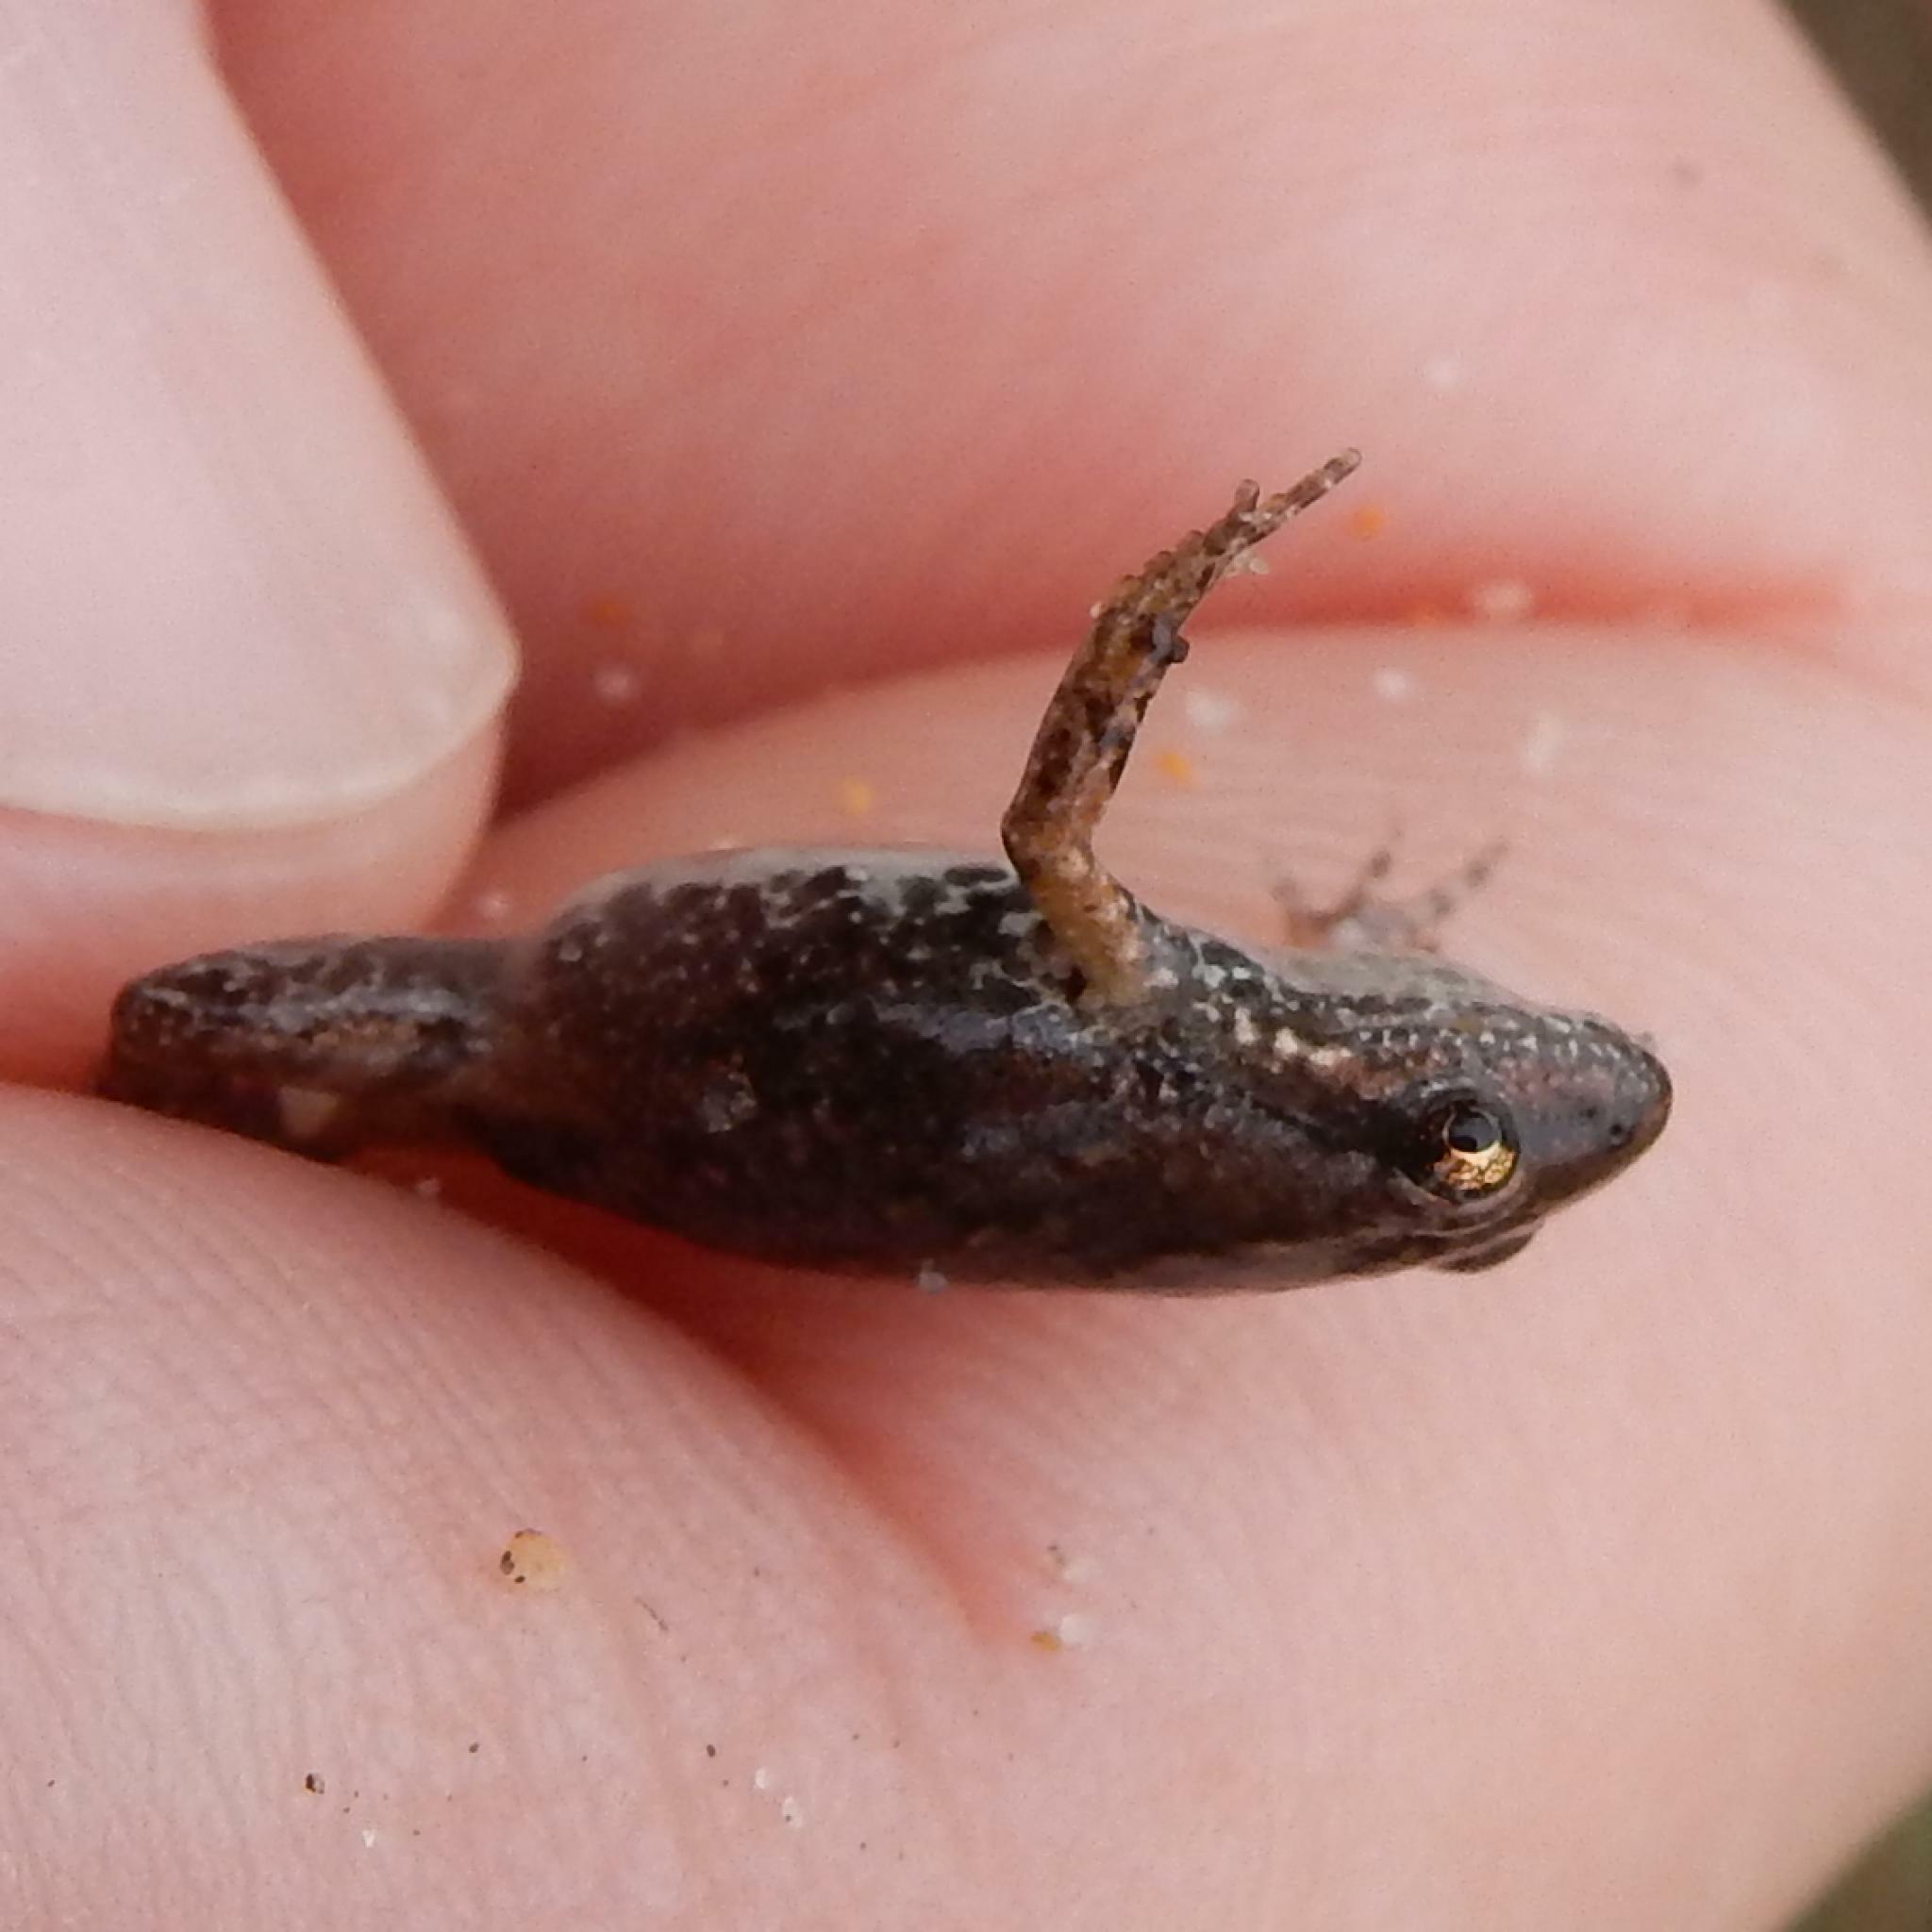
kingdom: Animalia
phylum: Chordata
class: Amphibia
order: Anura
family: Pyxicephalidae
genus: Cacosternum
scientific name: Cacosternum nanum
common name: Bronze dainty frog
